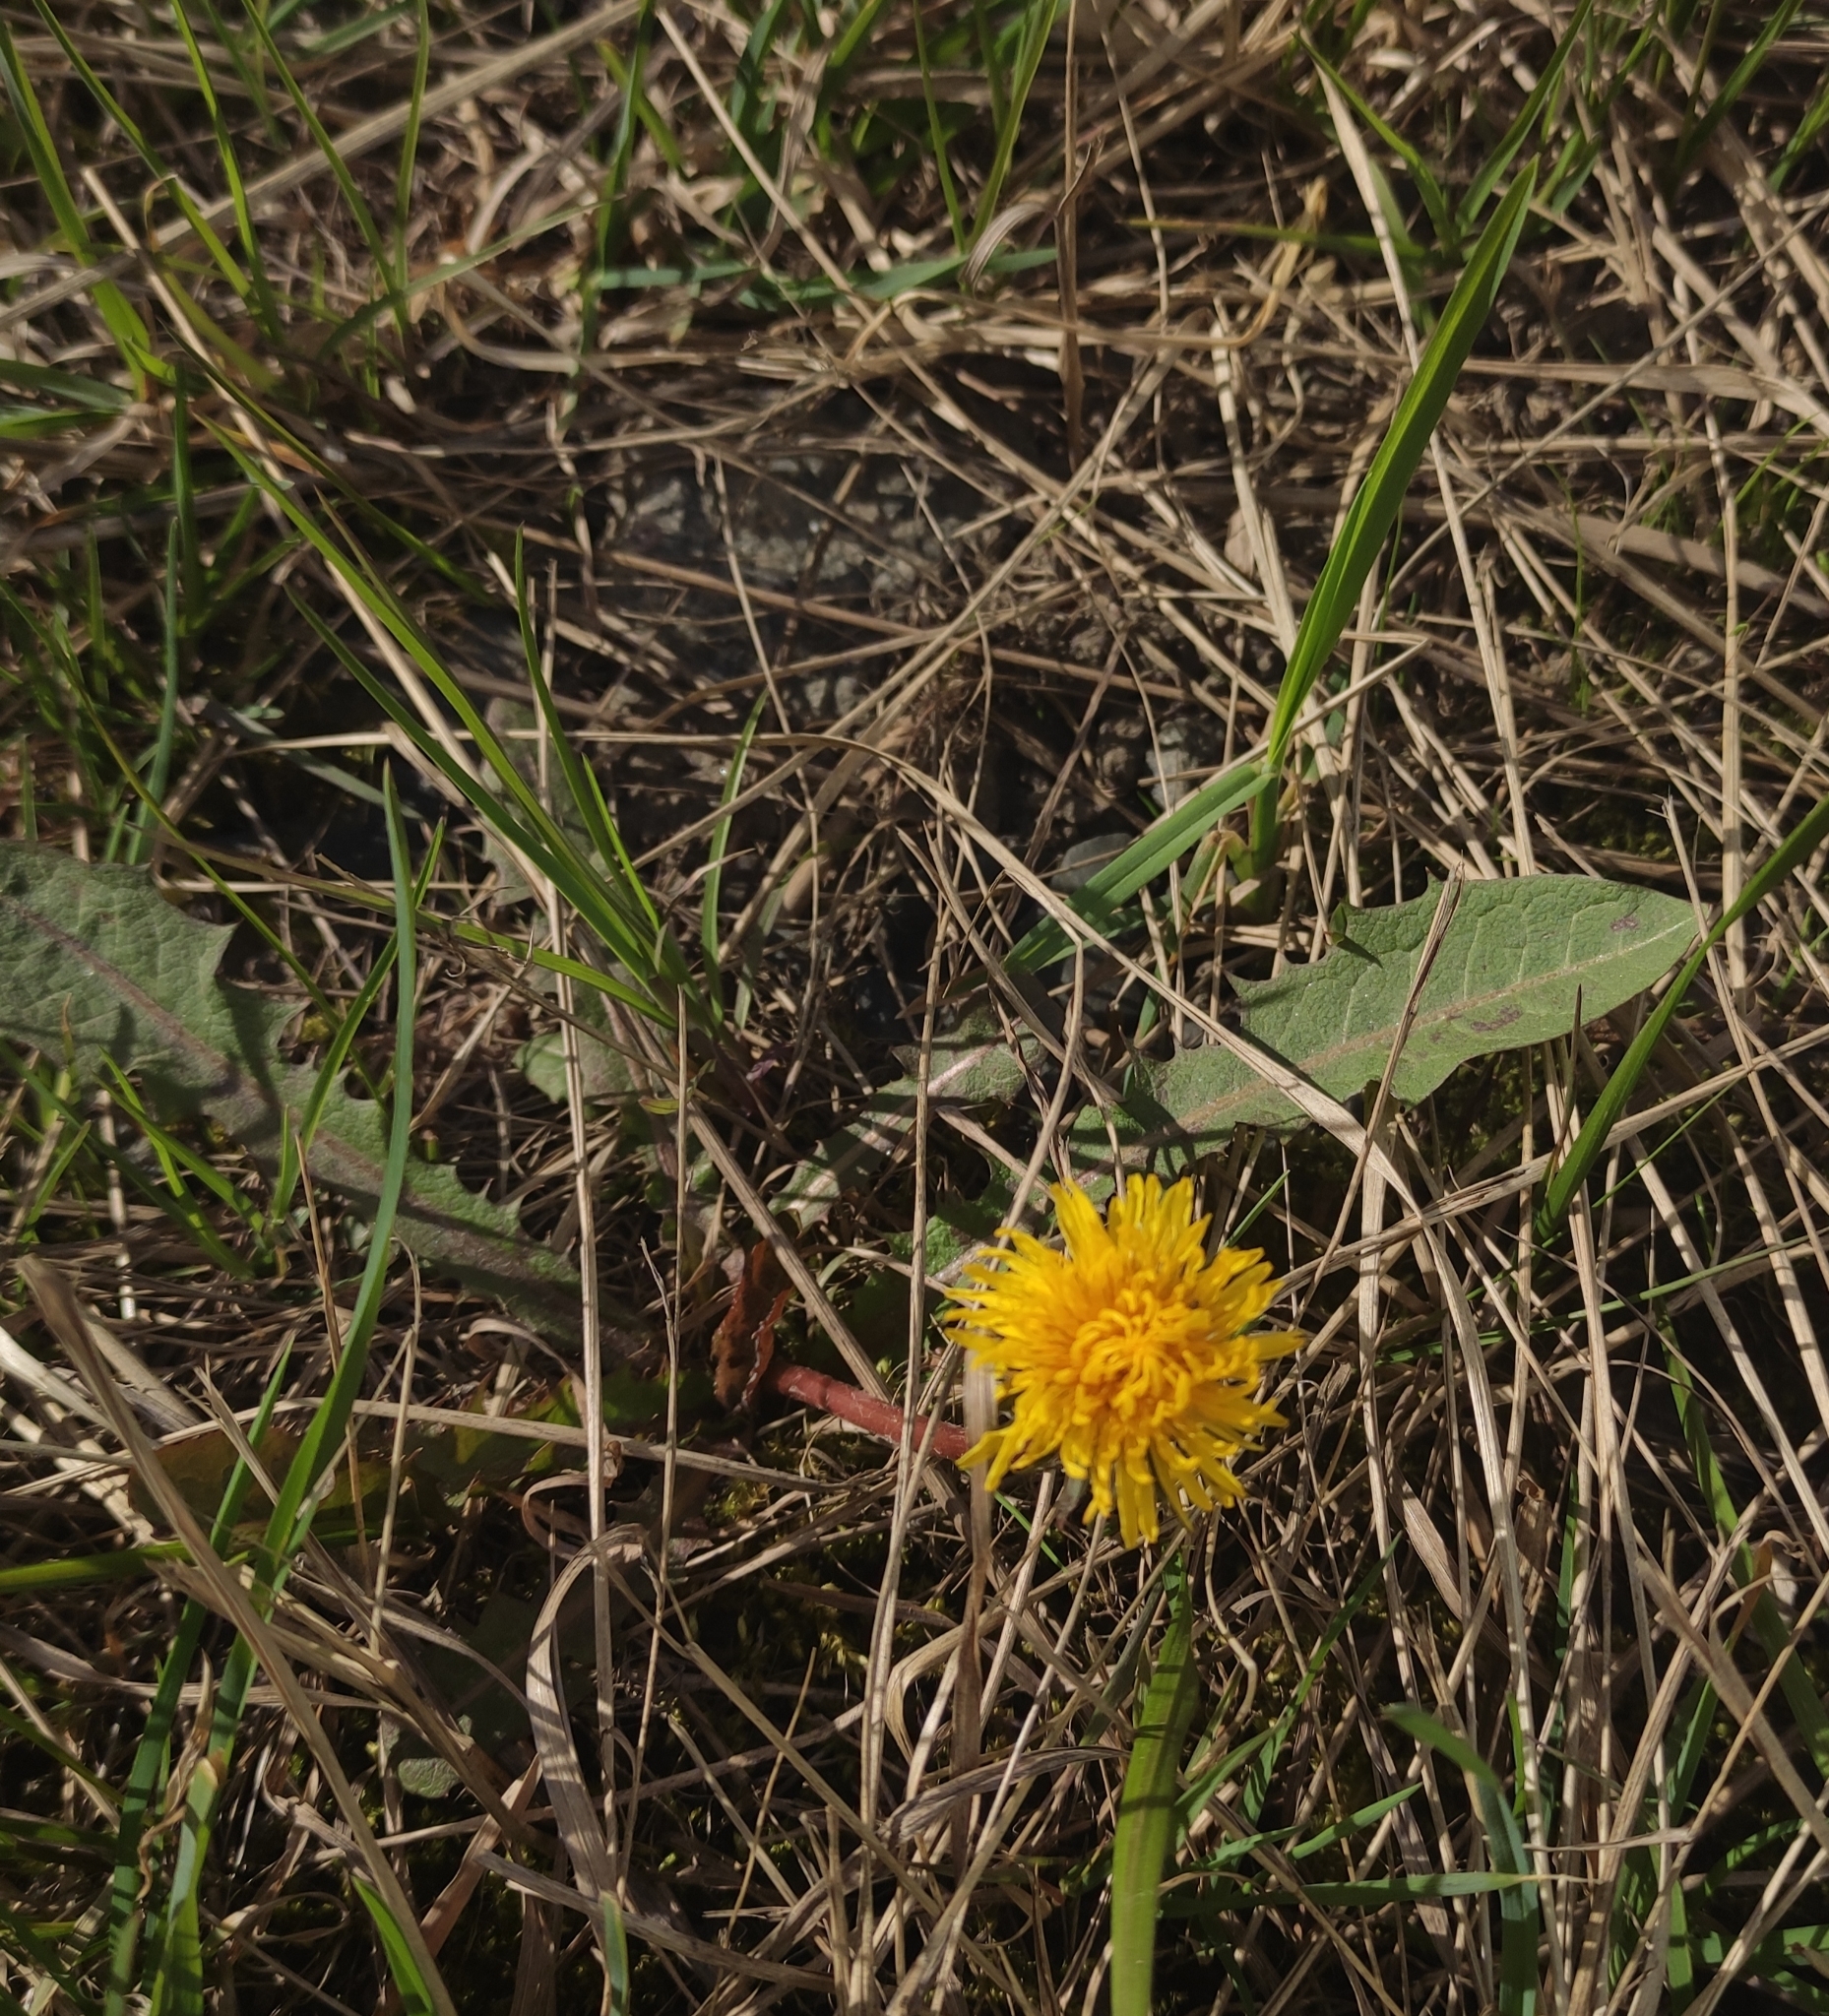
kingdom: Plantae
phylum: Tracheophyta
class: Magnoliopsida
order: Asterales
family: Asteraceae
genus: Taraxacum
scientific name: Taraxacum officinale
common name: Common dandelion
